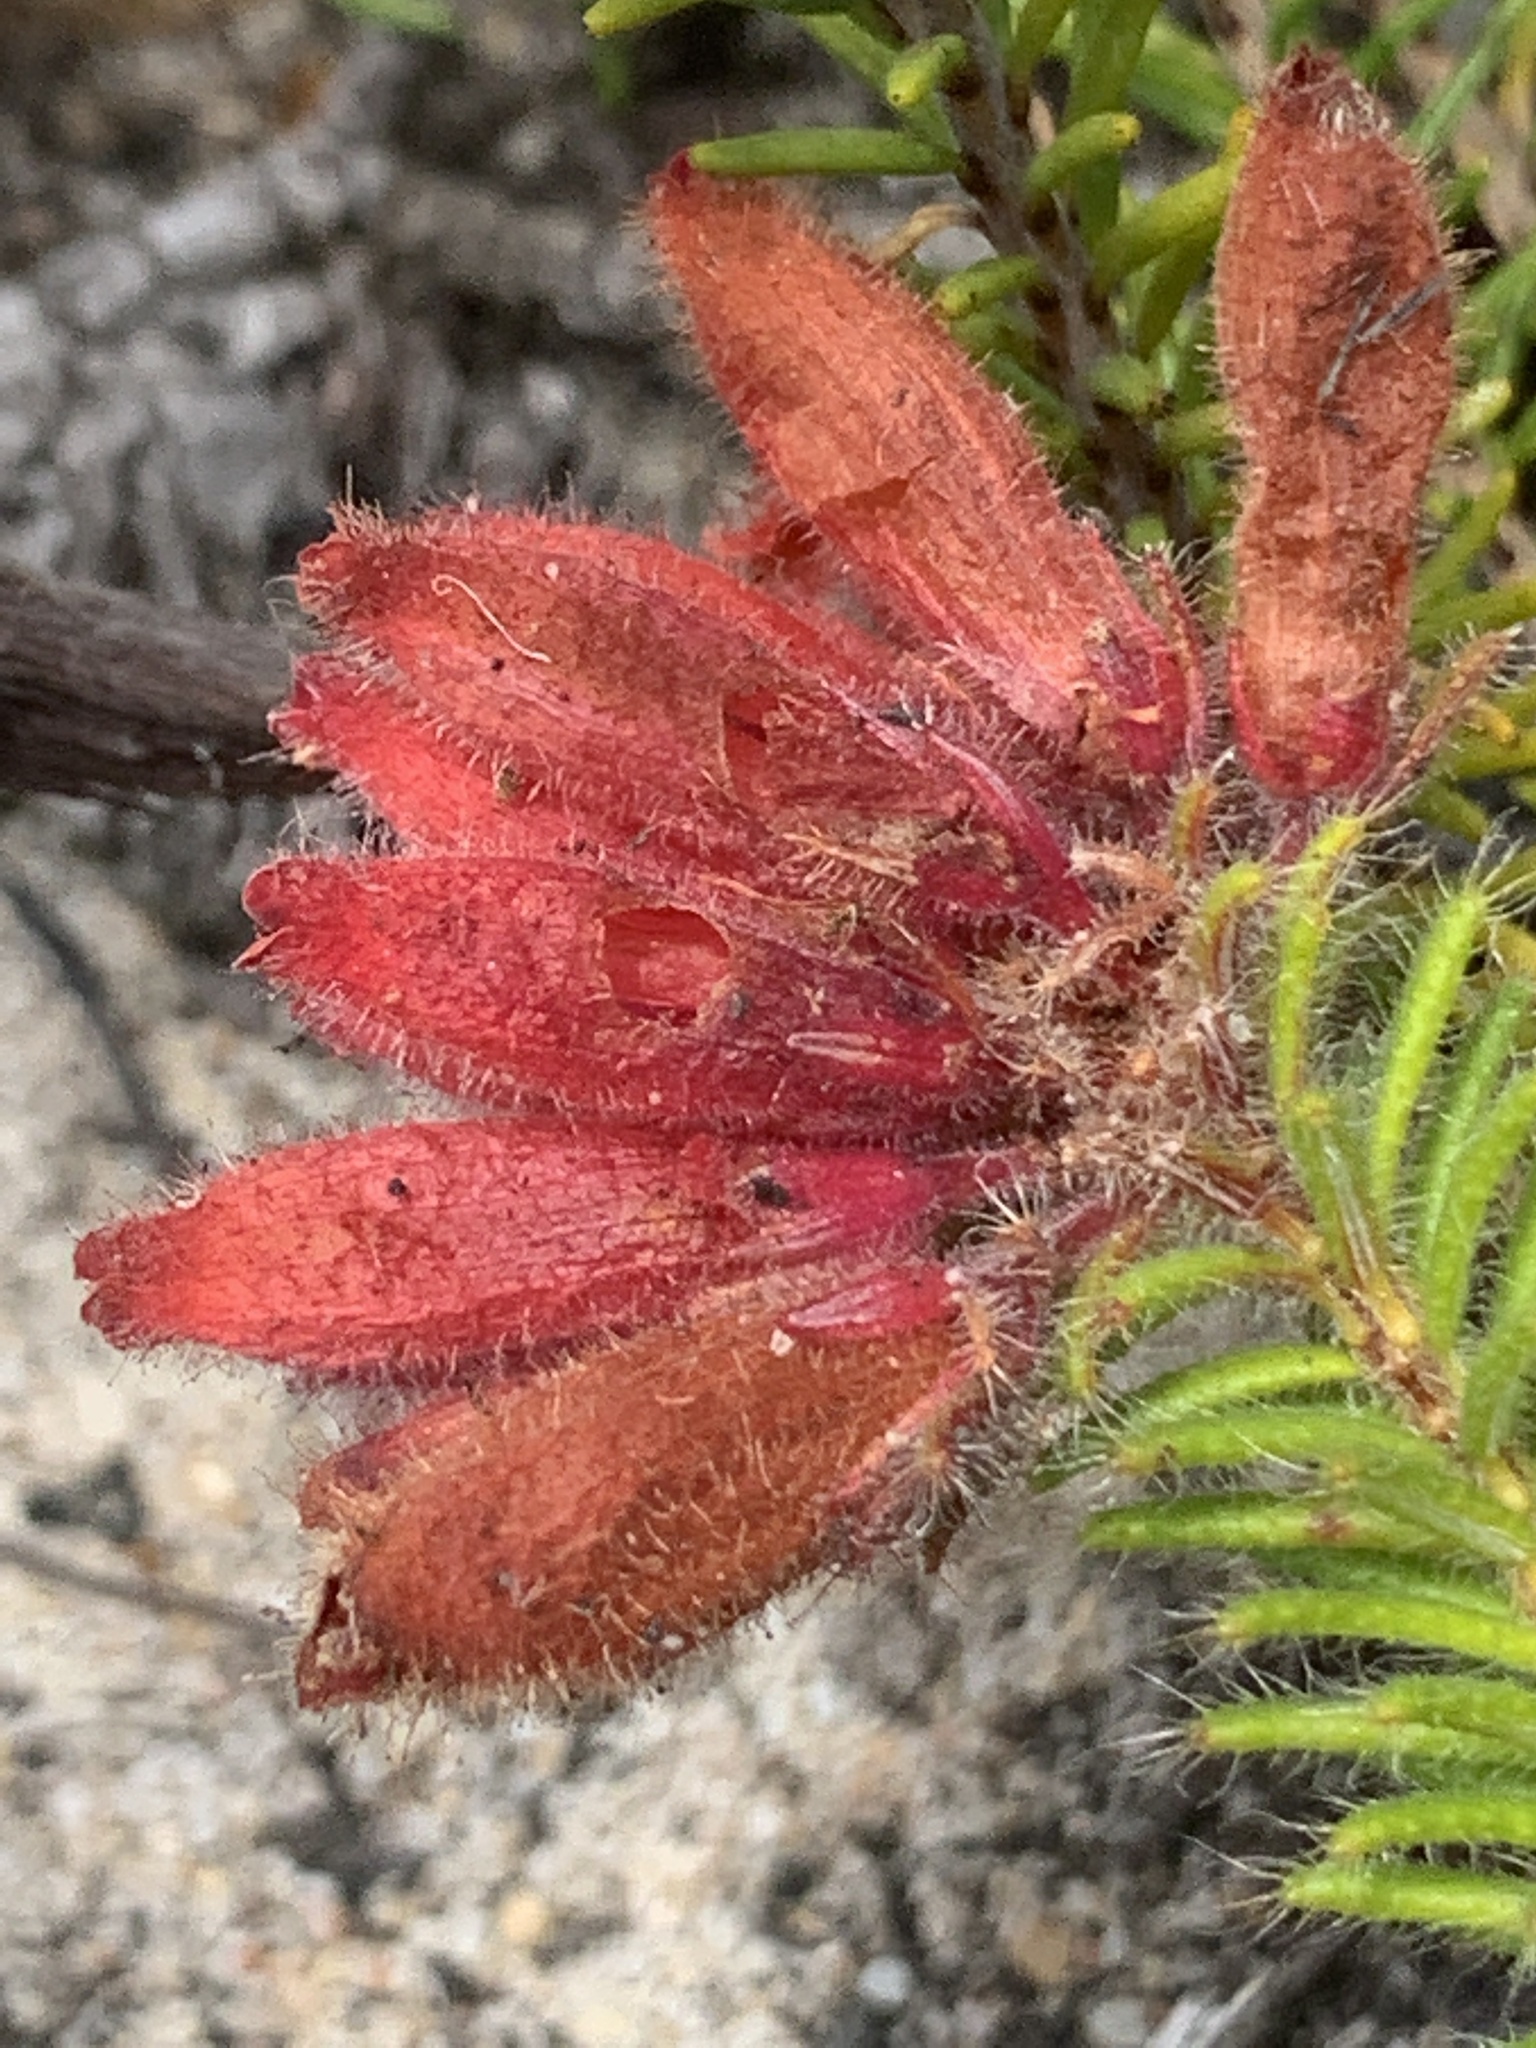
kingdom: Plantae
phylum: Tracheophyta
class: Magnoliopsida
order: Ericales
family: Ericaceae
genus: Erica
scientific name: Erica cerinthoides
